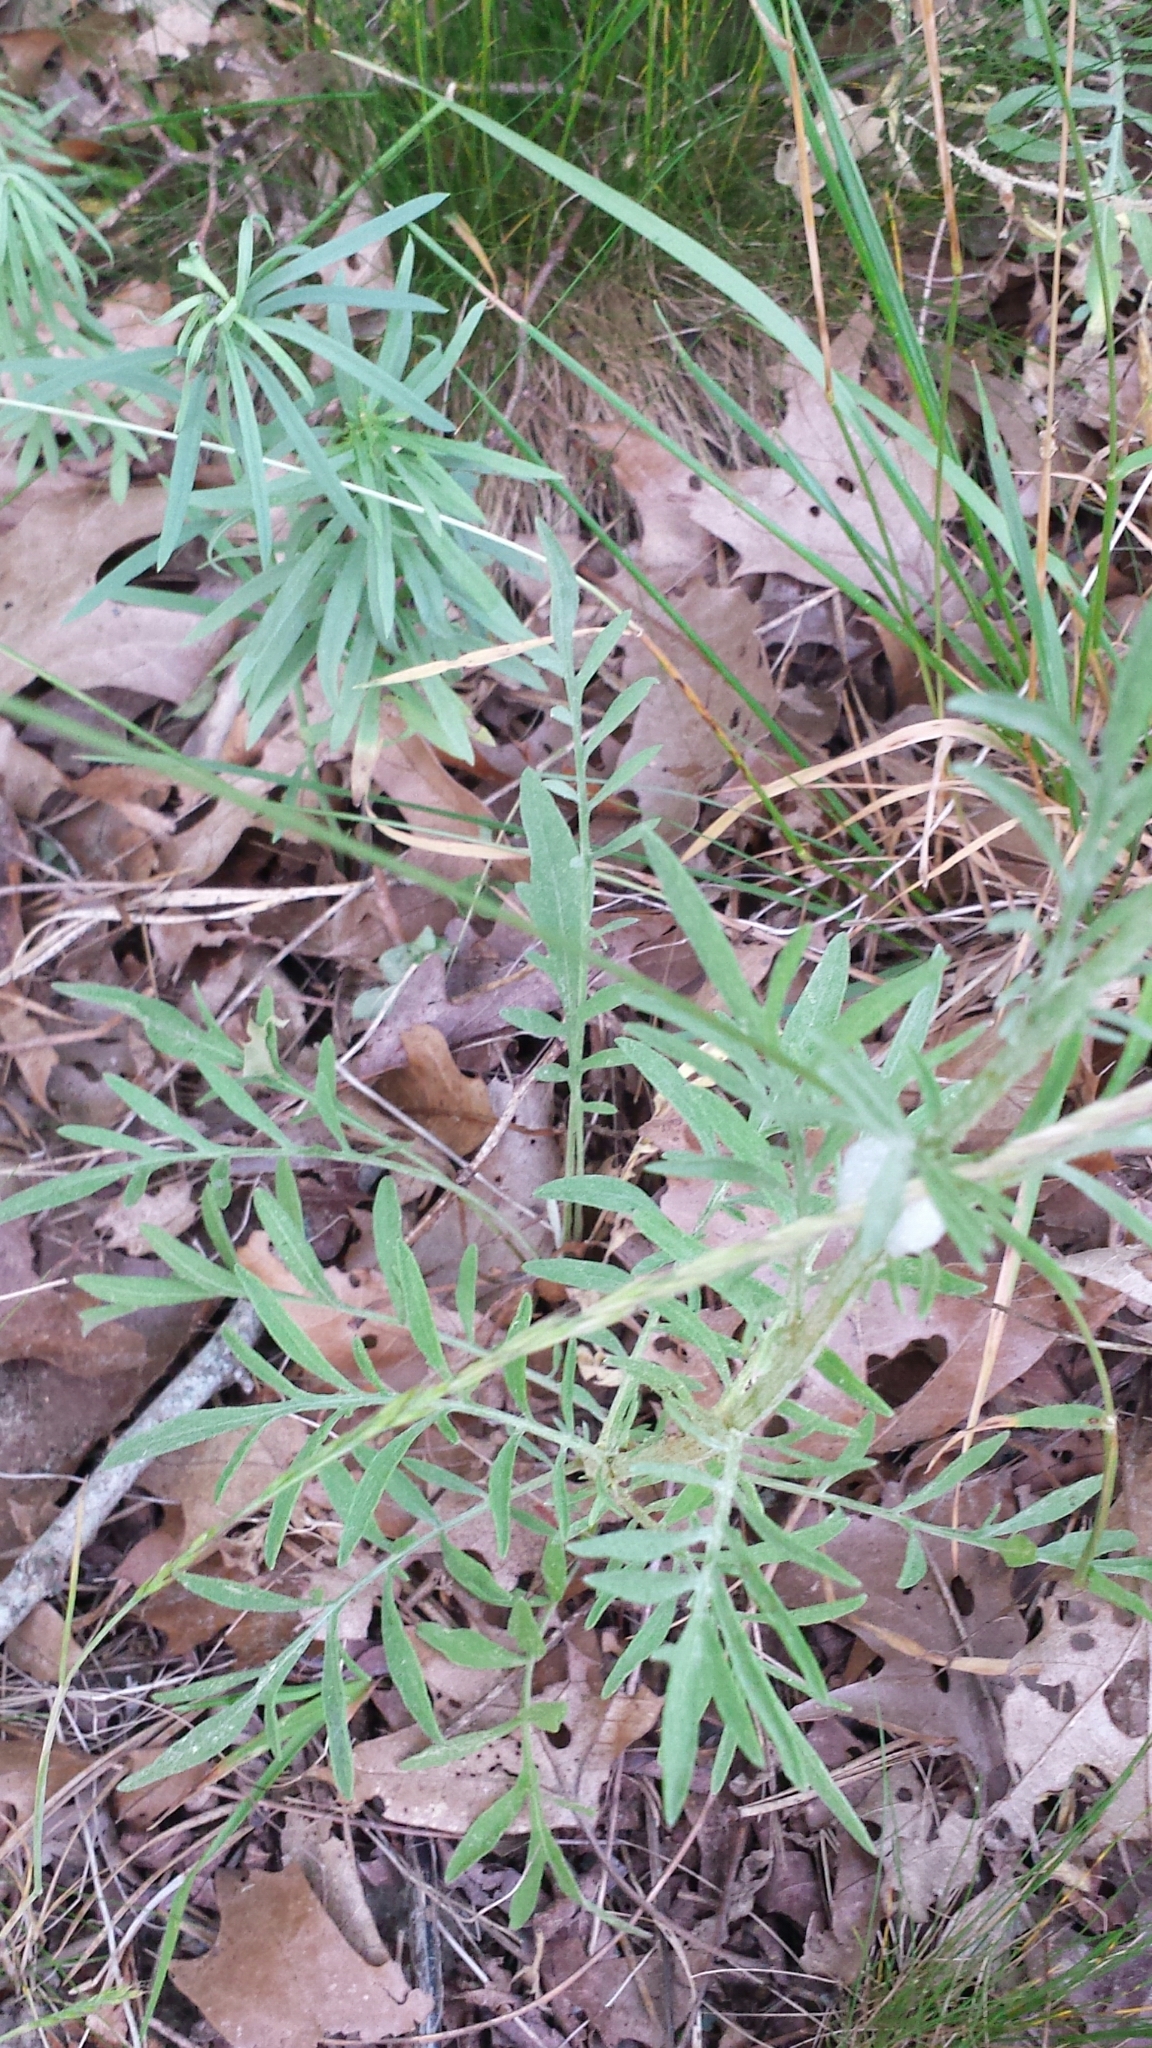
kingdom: Plantae
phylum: Tracheophyta
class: Magnoliopsida
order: Lamiales
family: Plantaginaceae
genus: Linaria
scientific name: Linaria vulgaris
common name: Butter and eggs
